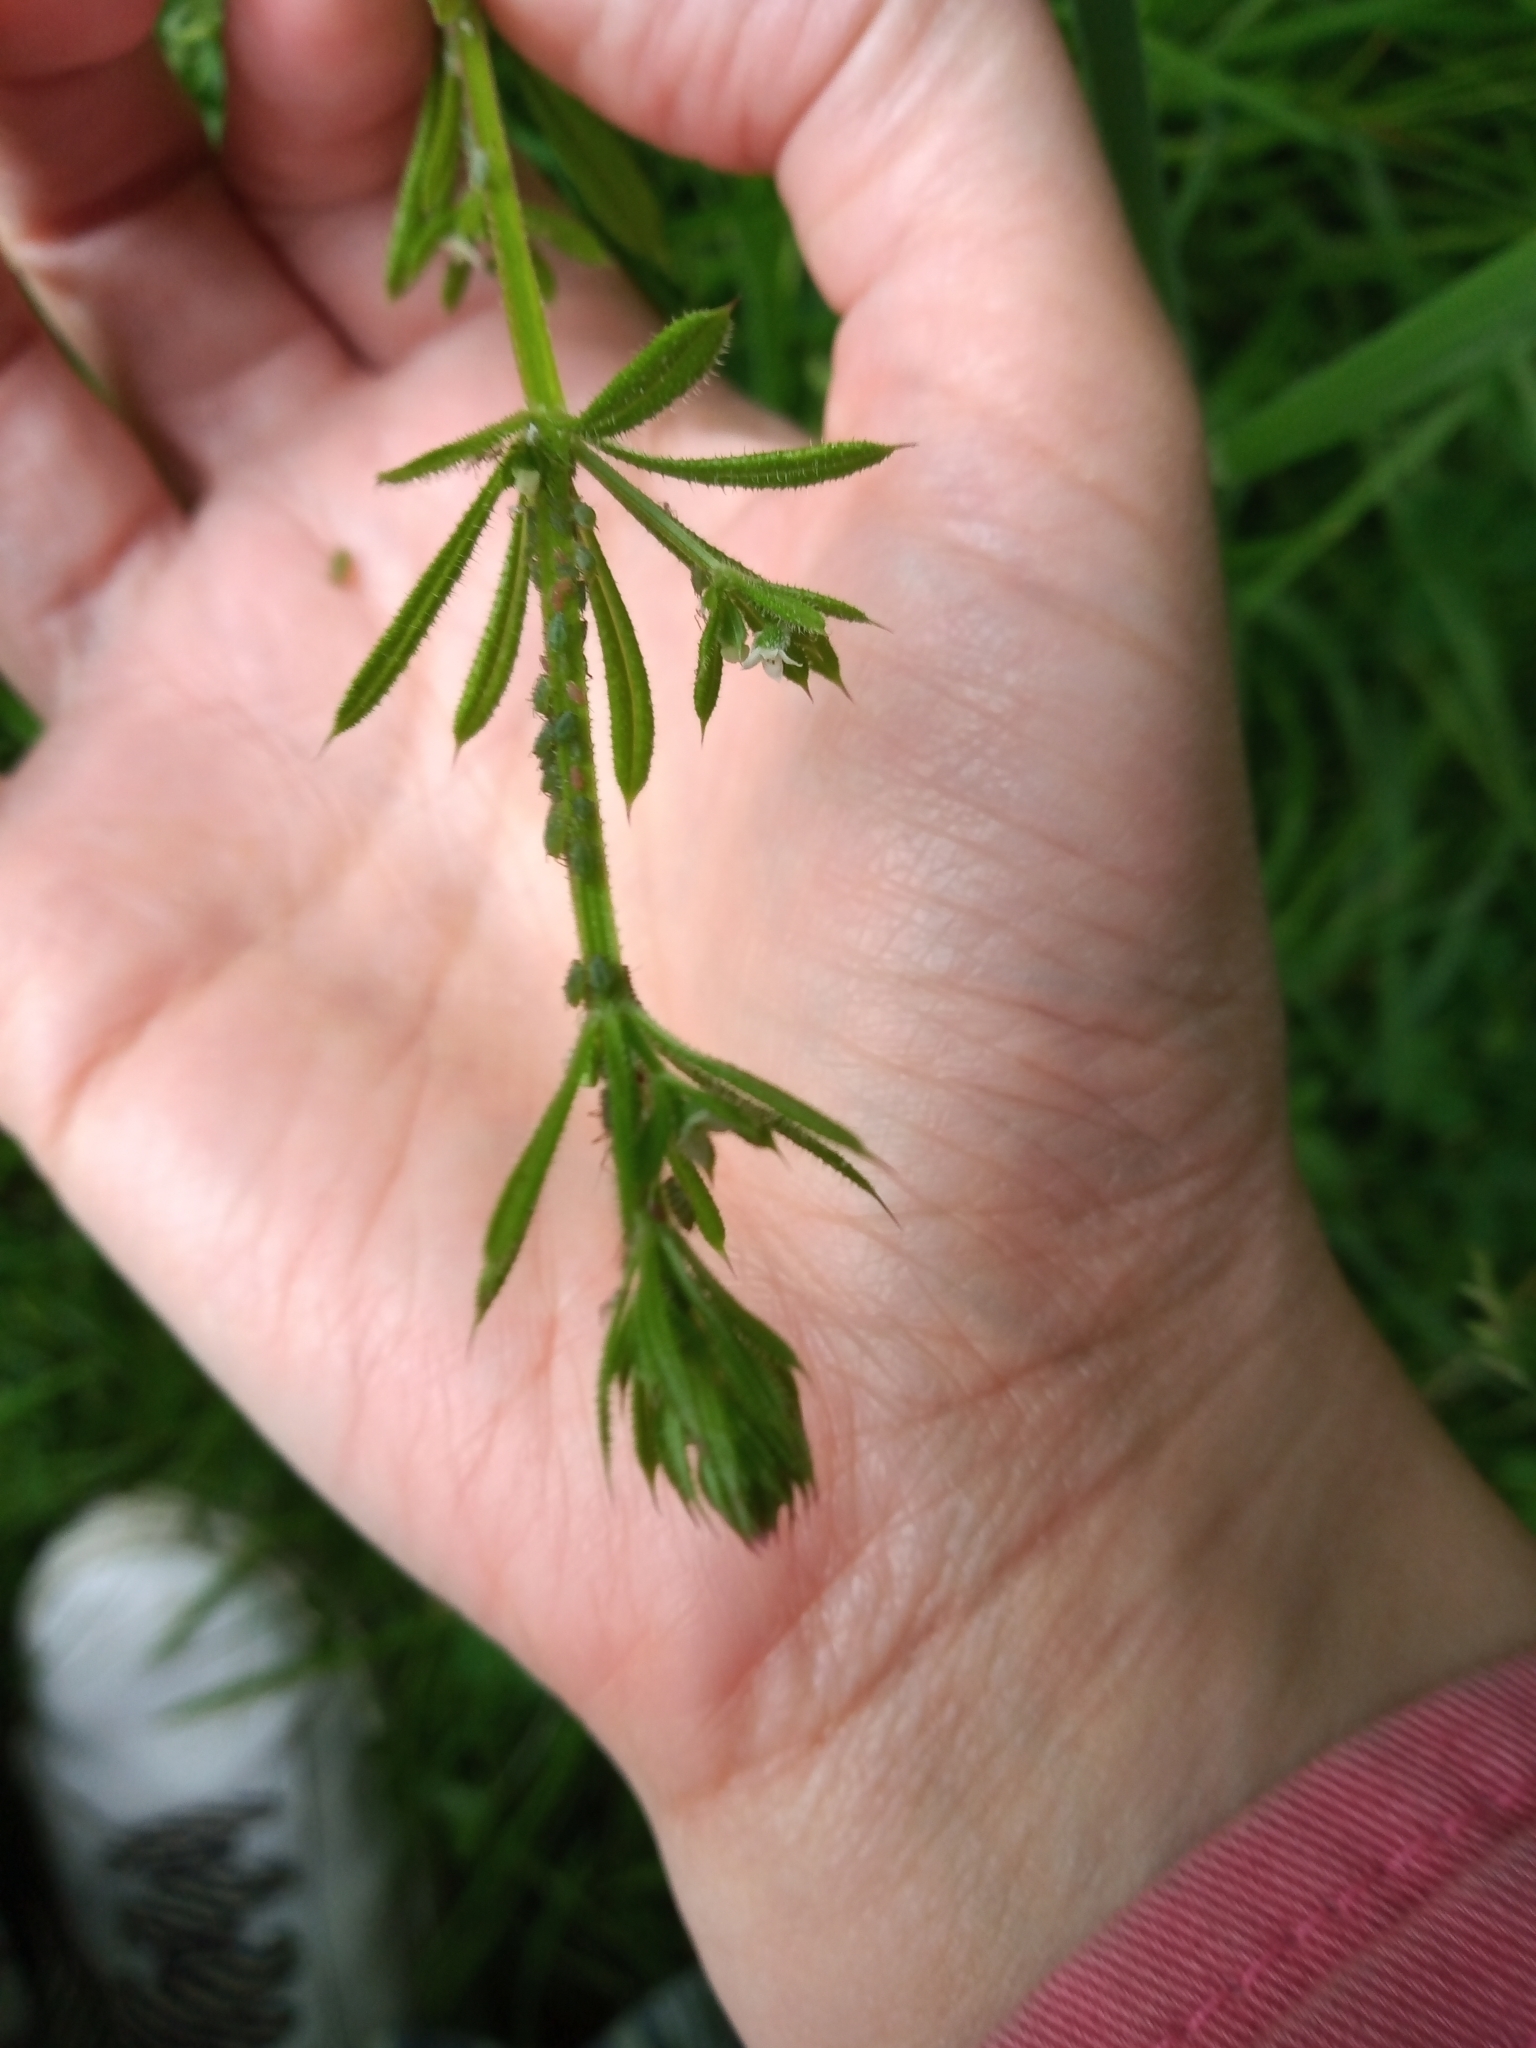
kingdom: Plantae
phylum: Tracheophyta
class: Magnoliopsida
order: Gentianales
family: Rubiaceae
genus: Galium
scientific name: Galium aparine
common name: Cleavers
